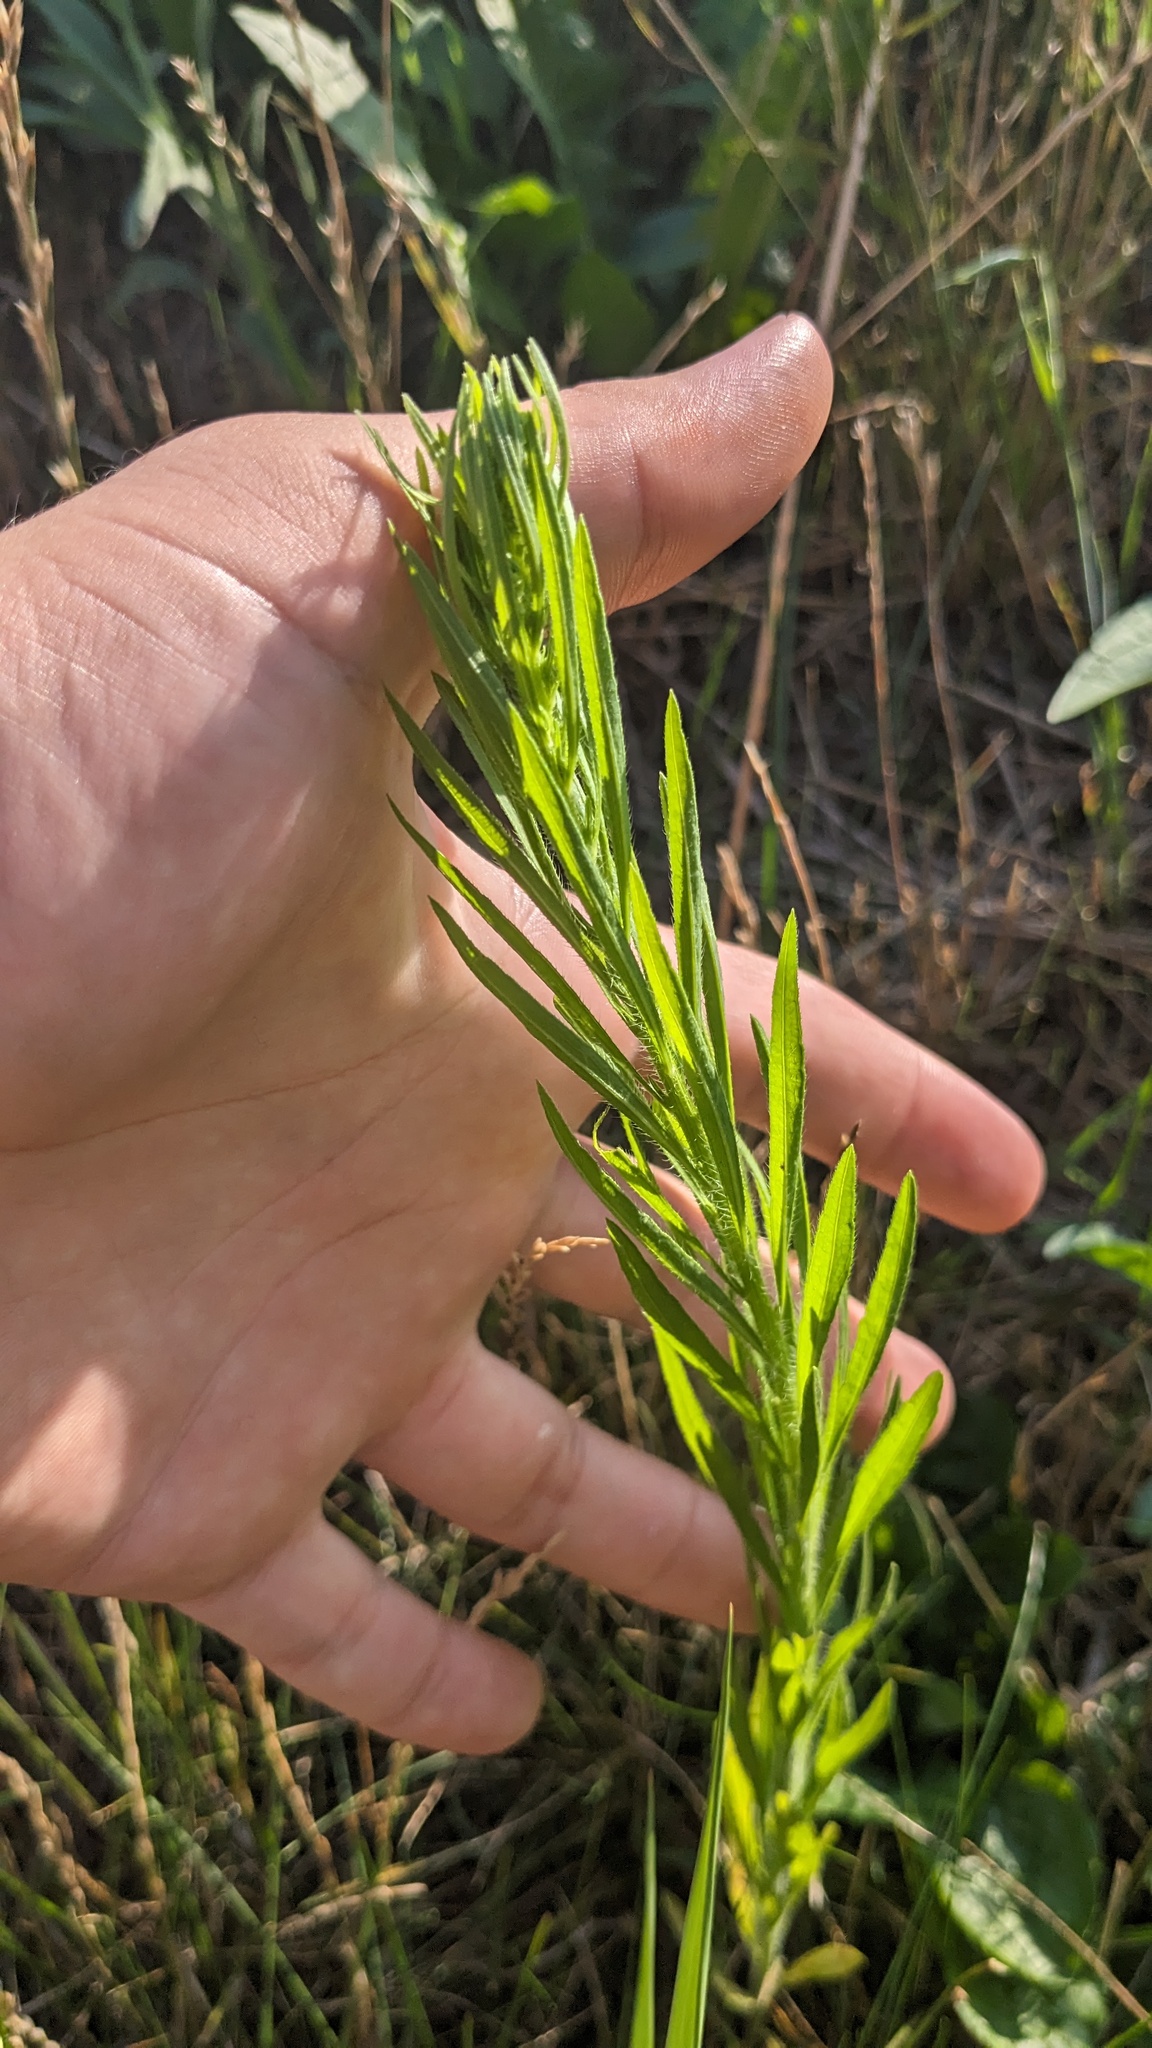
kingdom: Plantae
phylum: Tracheophyta
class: Magnoliopsida
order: Asterales
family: Asteraceae
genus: Erigeron
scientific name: Erigeron canadensis
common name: Canadian fleabane
